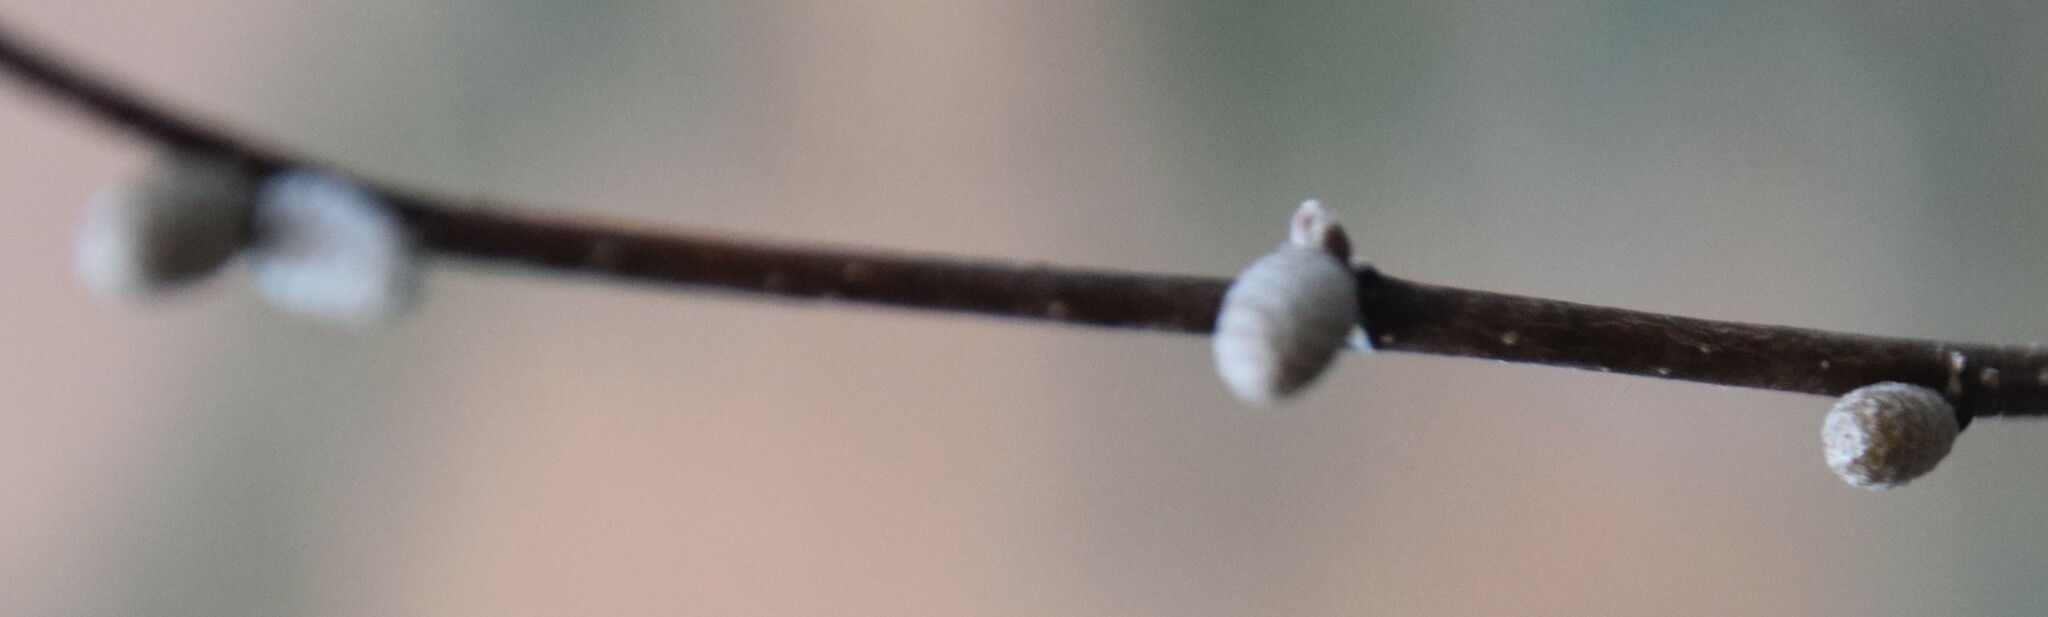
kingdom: Plantae
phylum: Tracheophyta
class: Magnoliopsida
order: Fagales
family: Betulaceae
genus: Corylus
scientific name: Corylus cornuta
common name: Beaked hazel
